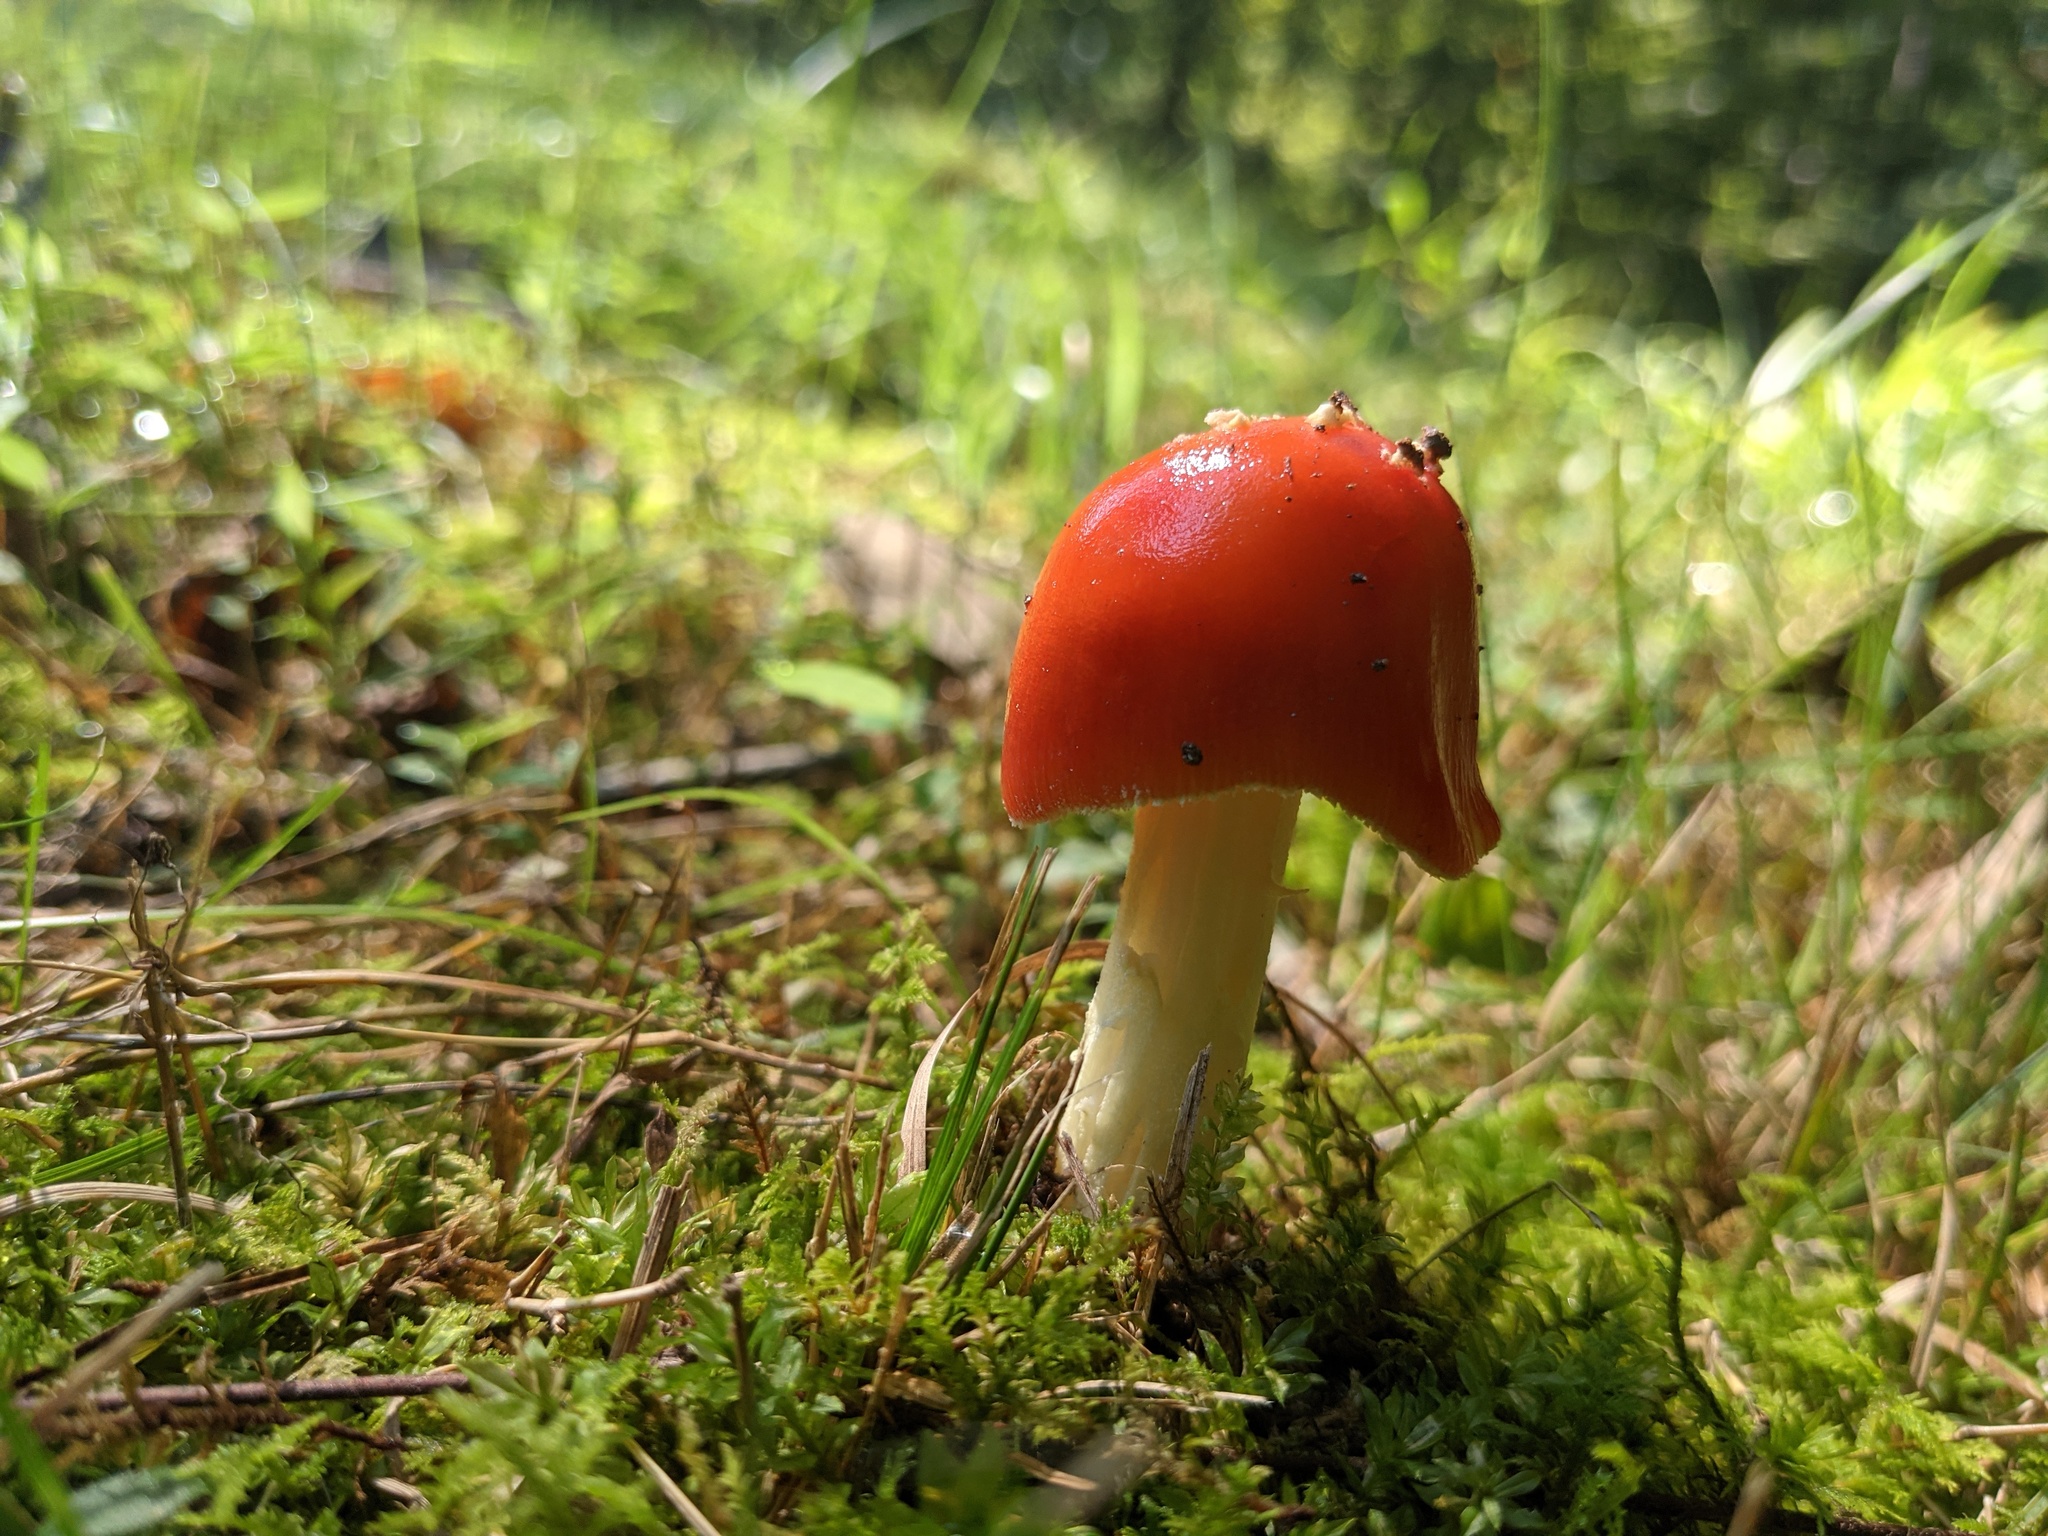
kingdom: Fungi
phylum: Basidiomycota
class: Agaricomycetes
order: Agaricales
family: Amanitaceae
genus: Amanita
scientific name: Amanita parcivolvata
